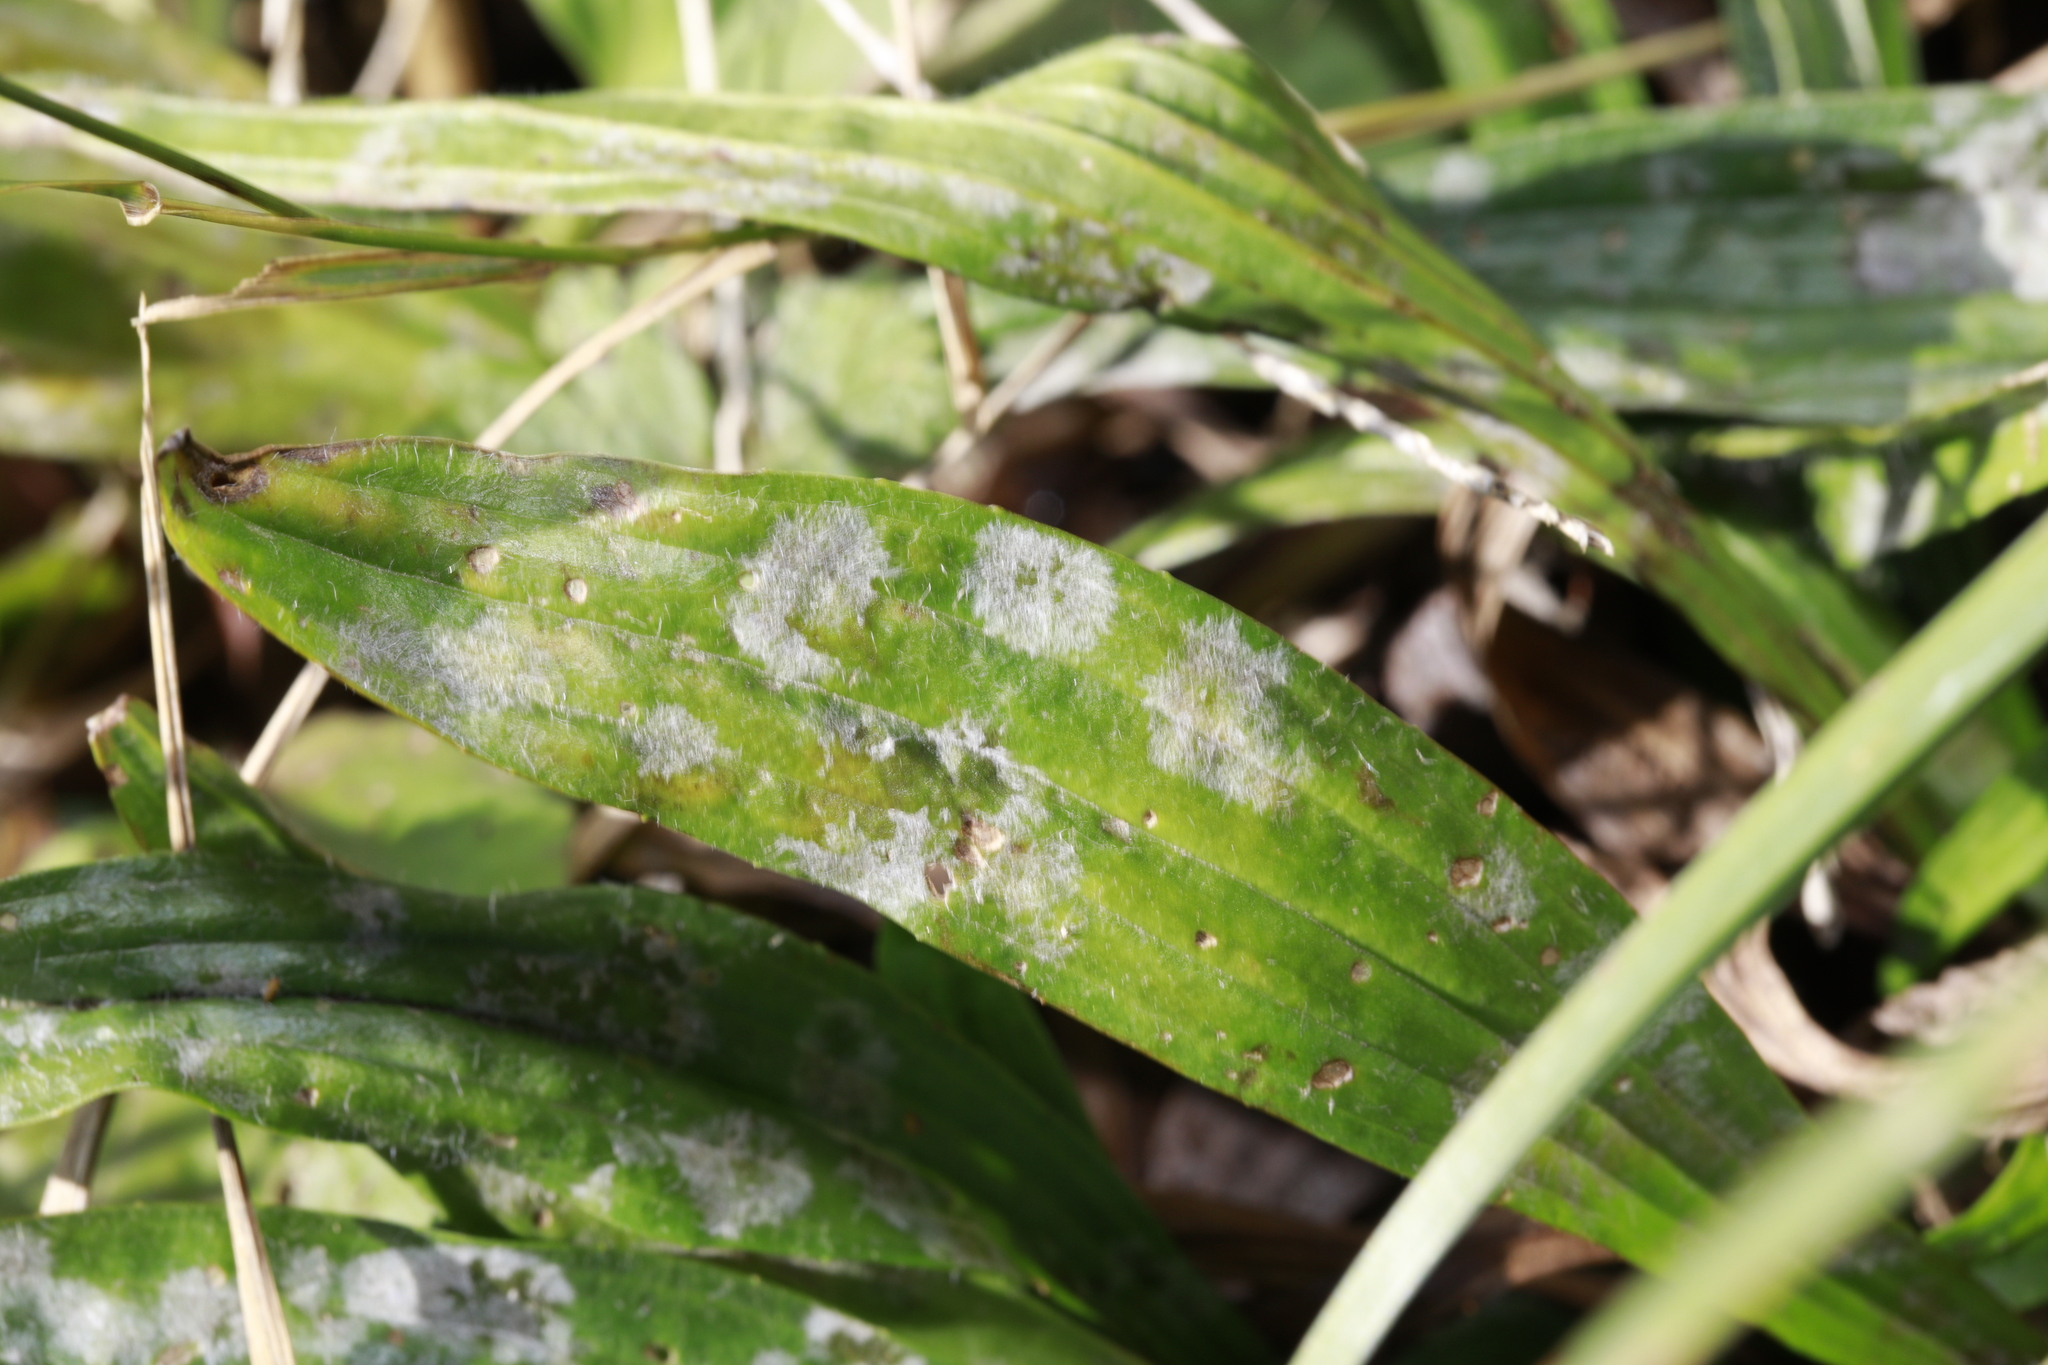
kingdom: Plantae
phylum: Tracheophyta
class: Magnoliopsida
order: Lamiales
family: Plantaginaceae
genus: Plantago
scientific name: Plantago lanceolata
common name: Ribwort plantain
